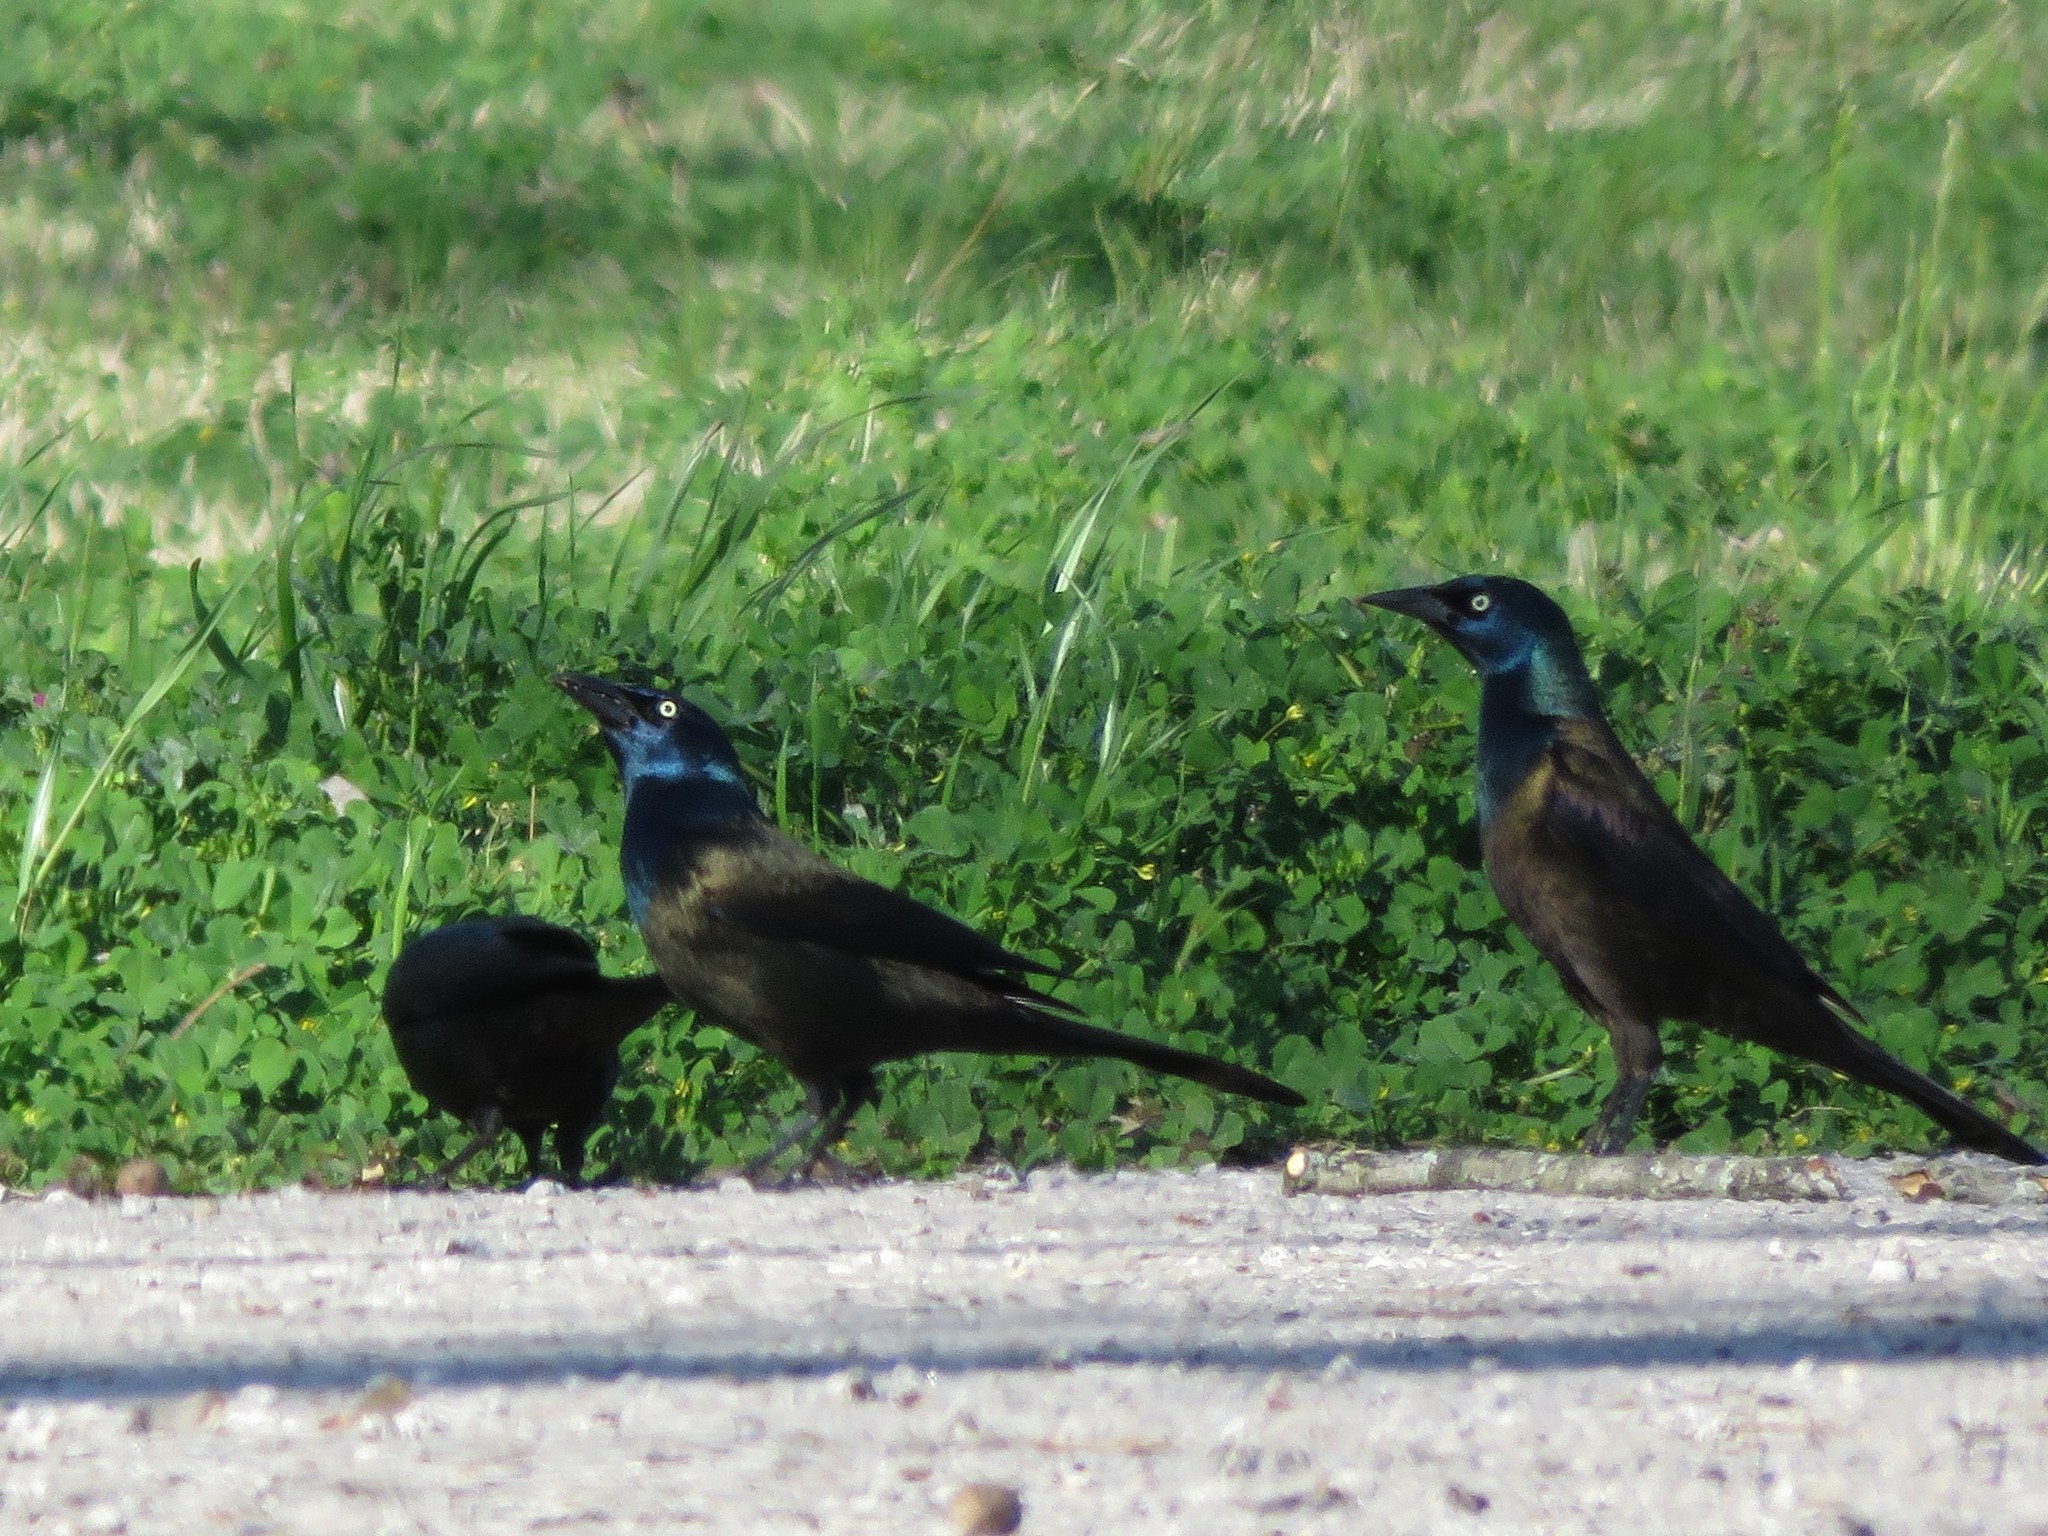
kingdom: Animalia
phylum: Chordata
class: Aves
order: Passeriformes
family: Icteridae
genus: Quiscalus
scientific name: Quiscalus quiscula
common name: Common grackle
